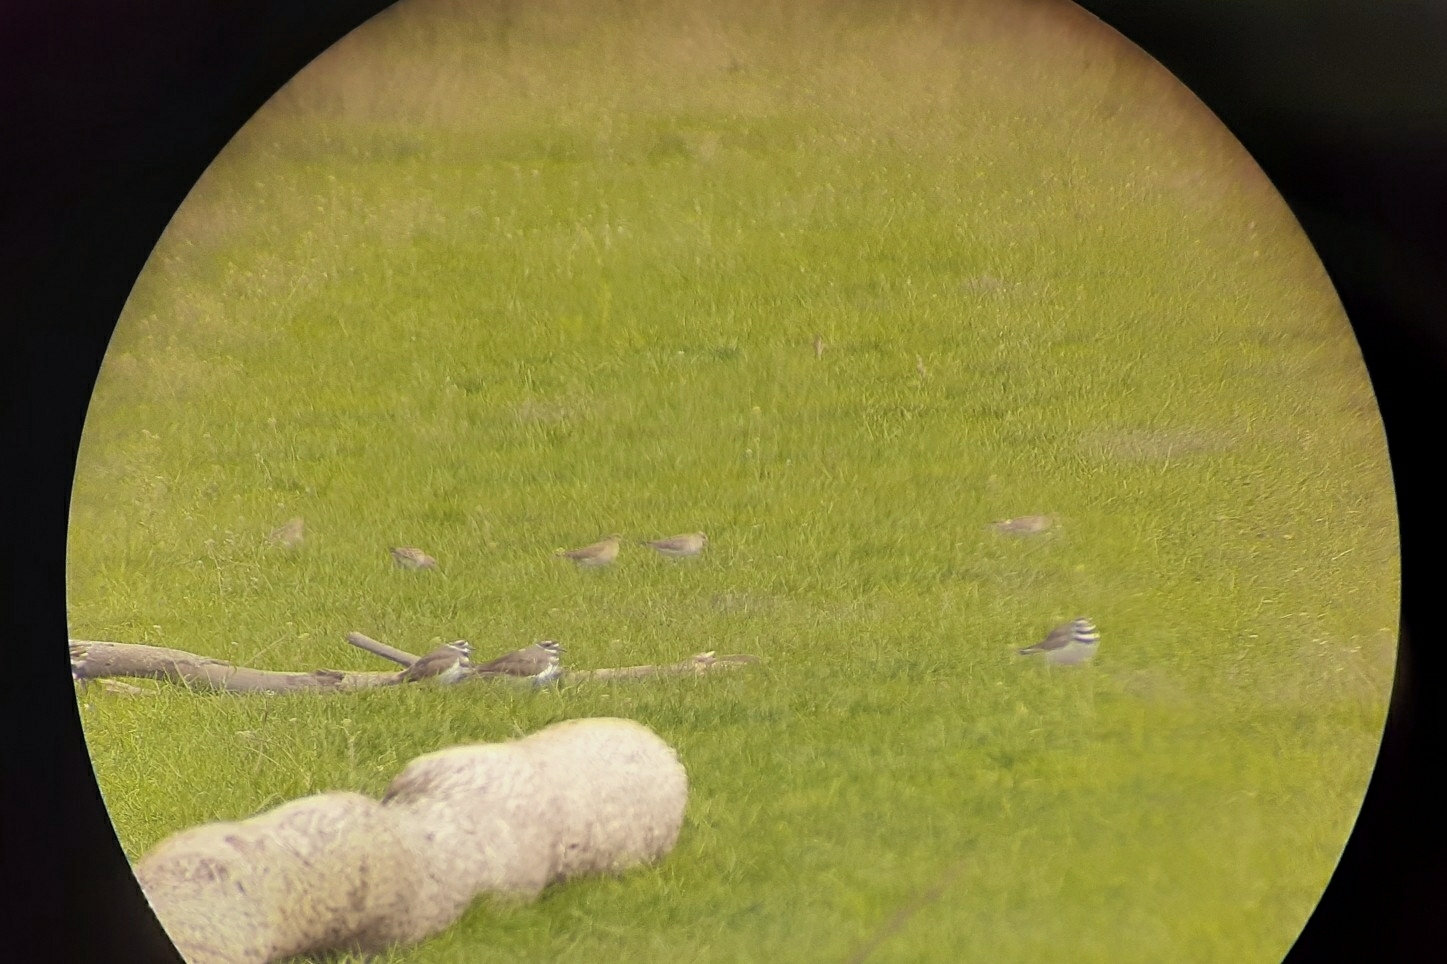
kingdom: Animalia
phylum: Chordata
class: Aves
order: Charadriiformes
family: Scolopacidae
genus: Calidris
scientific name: Calidris melanotos
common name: Pectoral sandpiper
